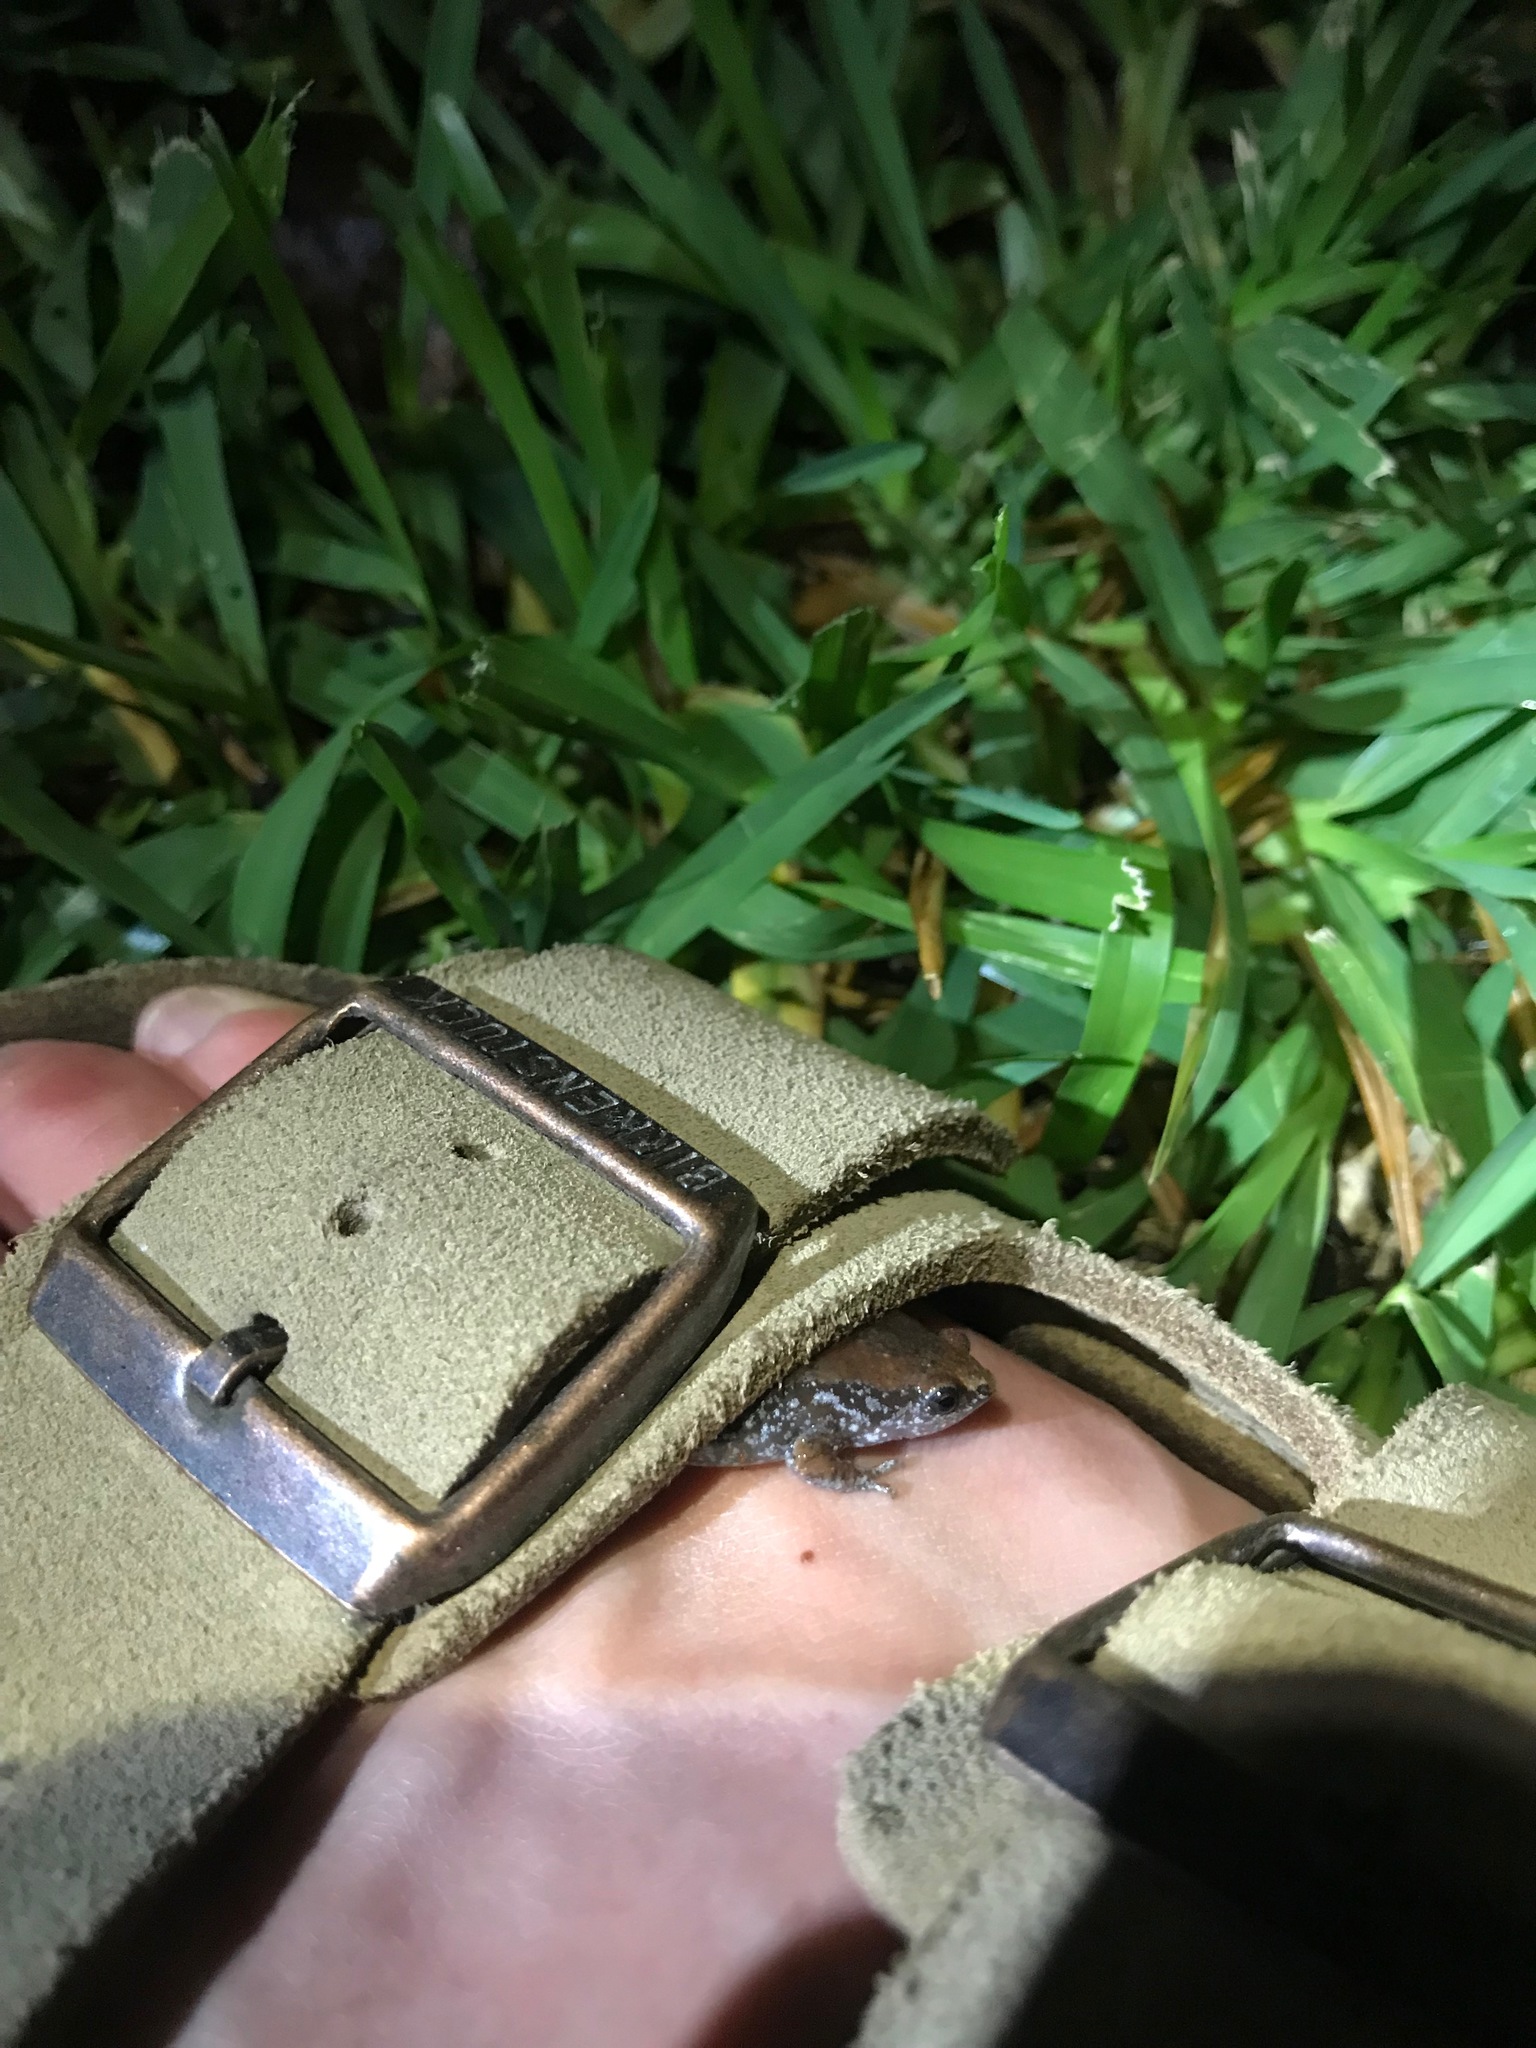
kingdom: Animalia
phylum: Chordata
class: Amphibia
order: Anura
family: Microhylidae
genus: Gastrophryne
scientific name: Gastrophryne carolinensis
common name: Eastern narrowmouth toad
